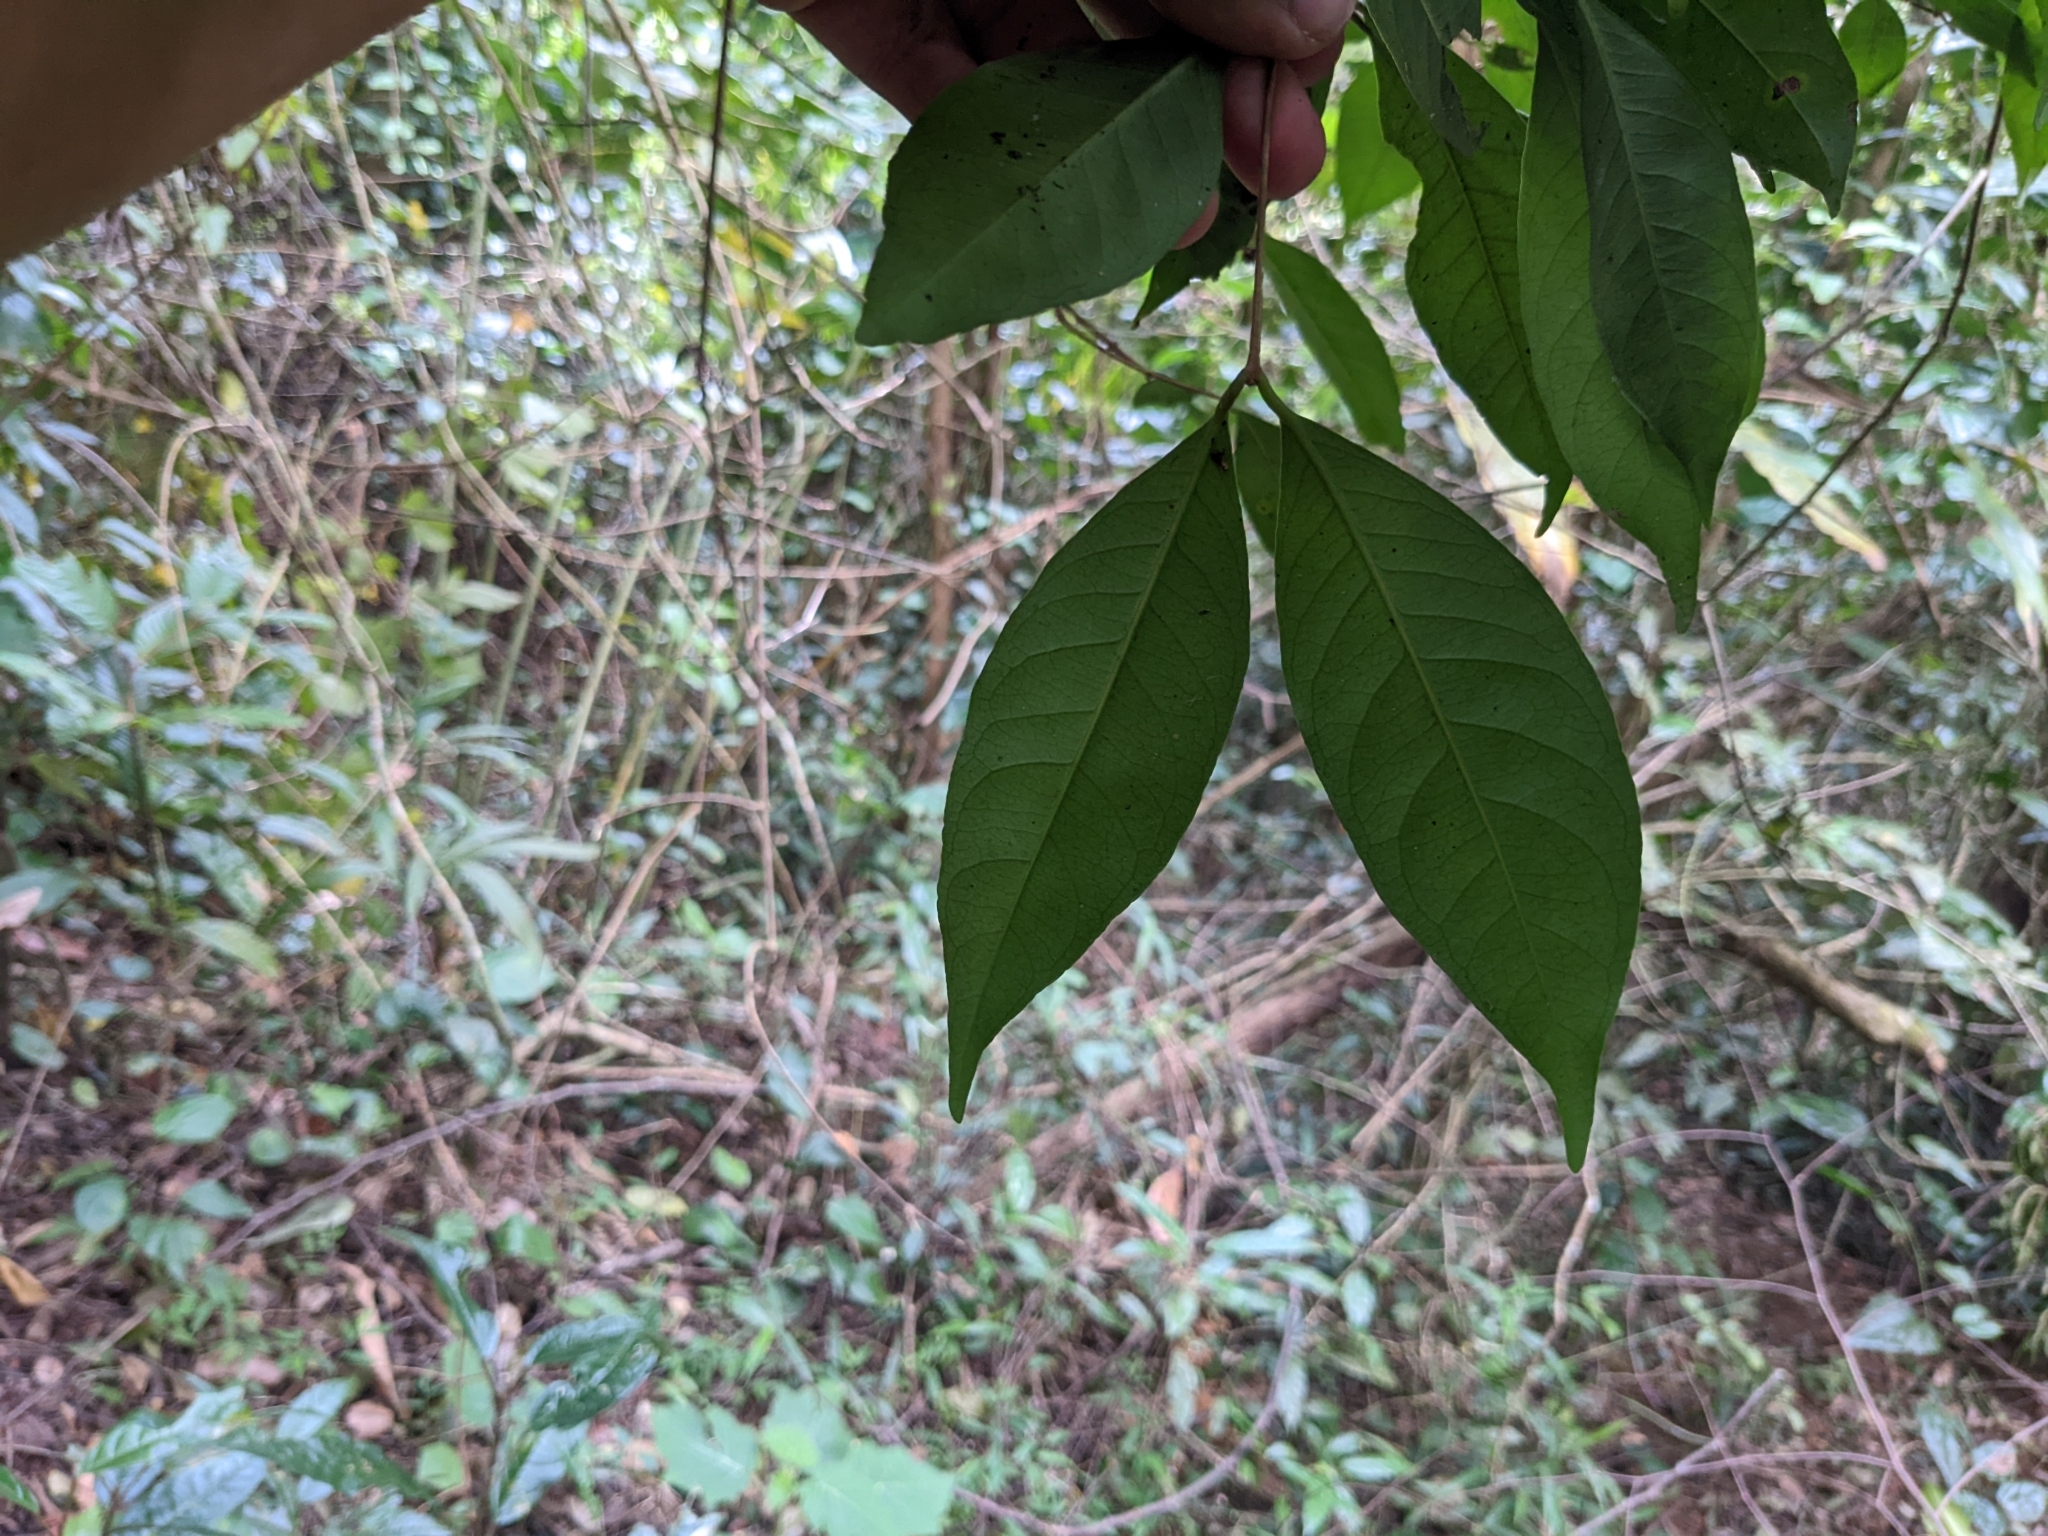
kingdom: Plantae
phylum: Tracheophyta
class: Magnoliopsida
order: Myrtales
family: Myrtaceae
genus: Syzygium
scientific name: Syzygium hemisphericum
